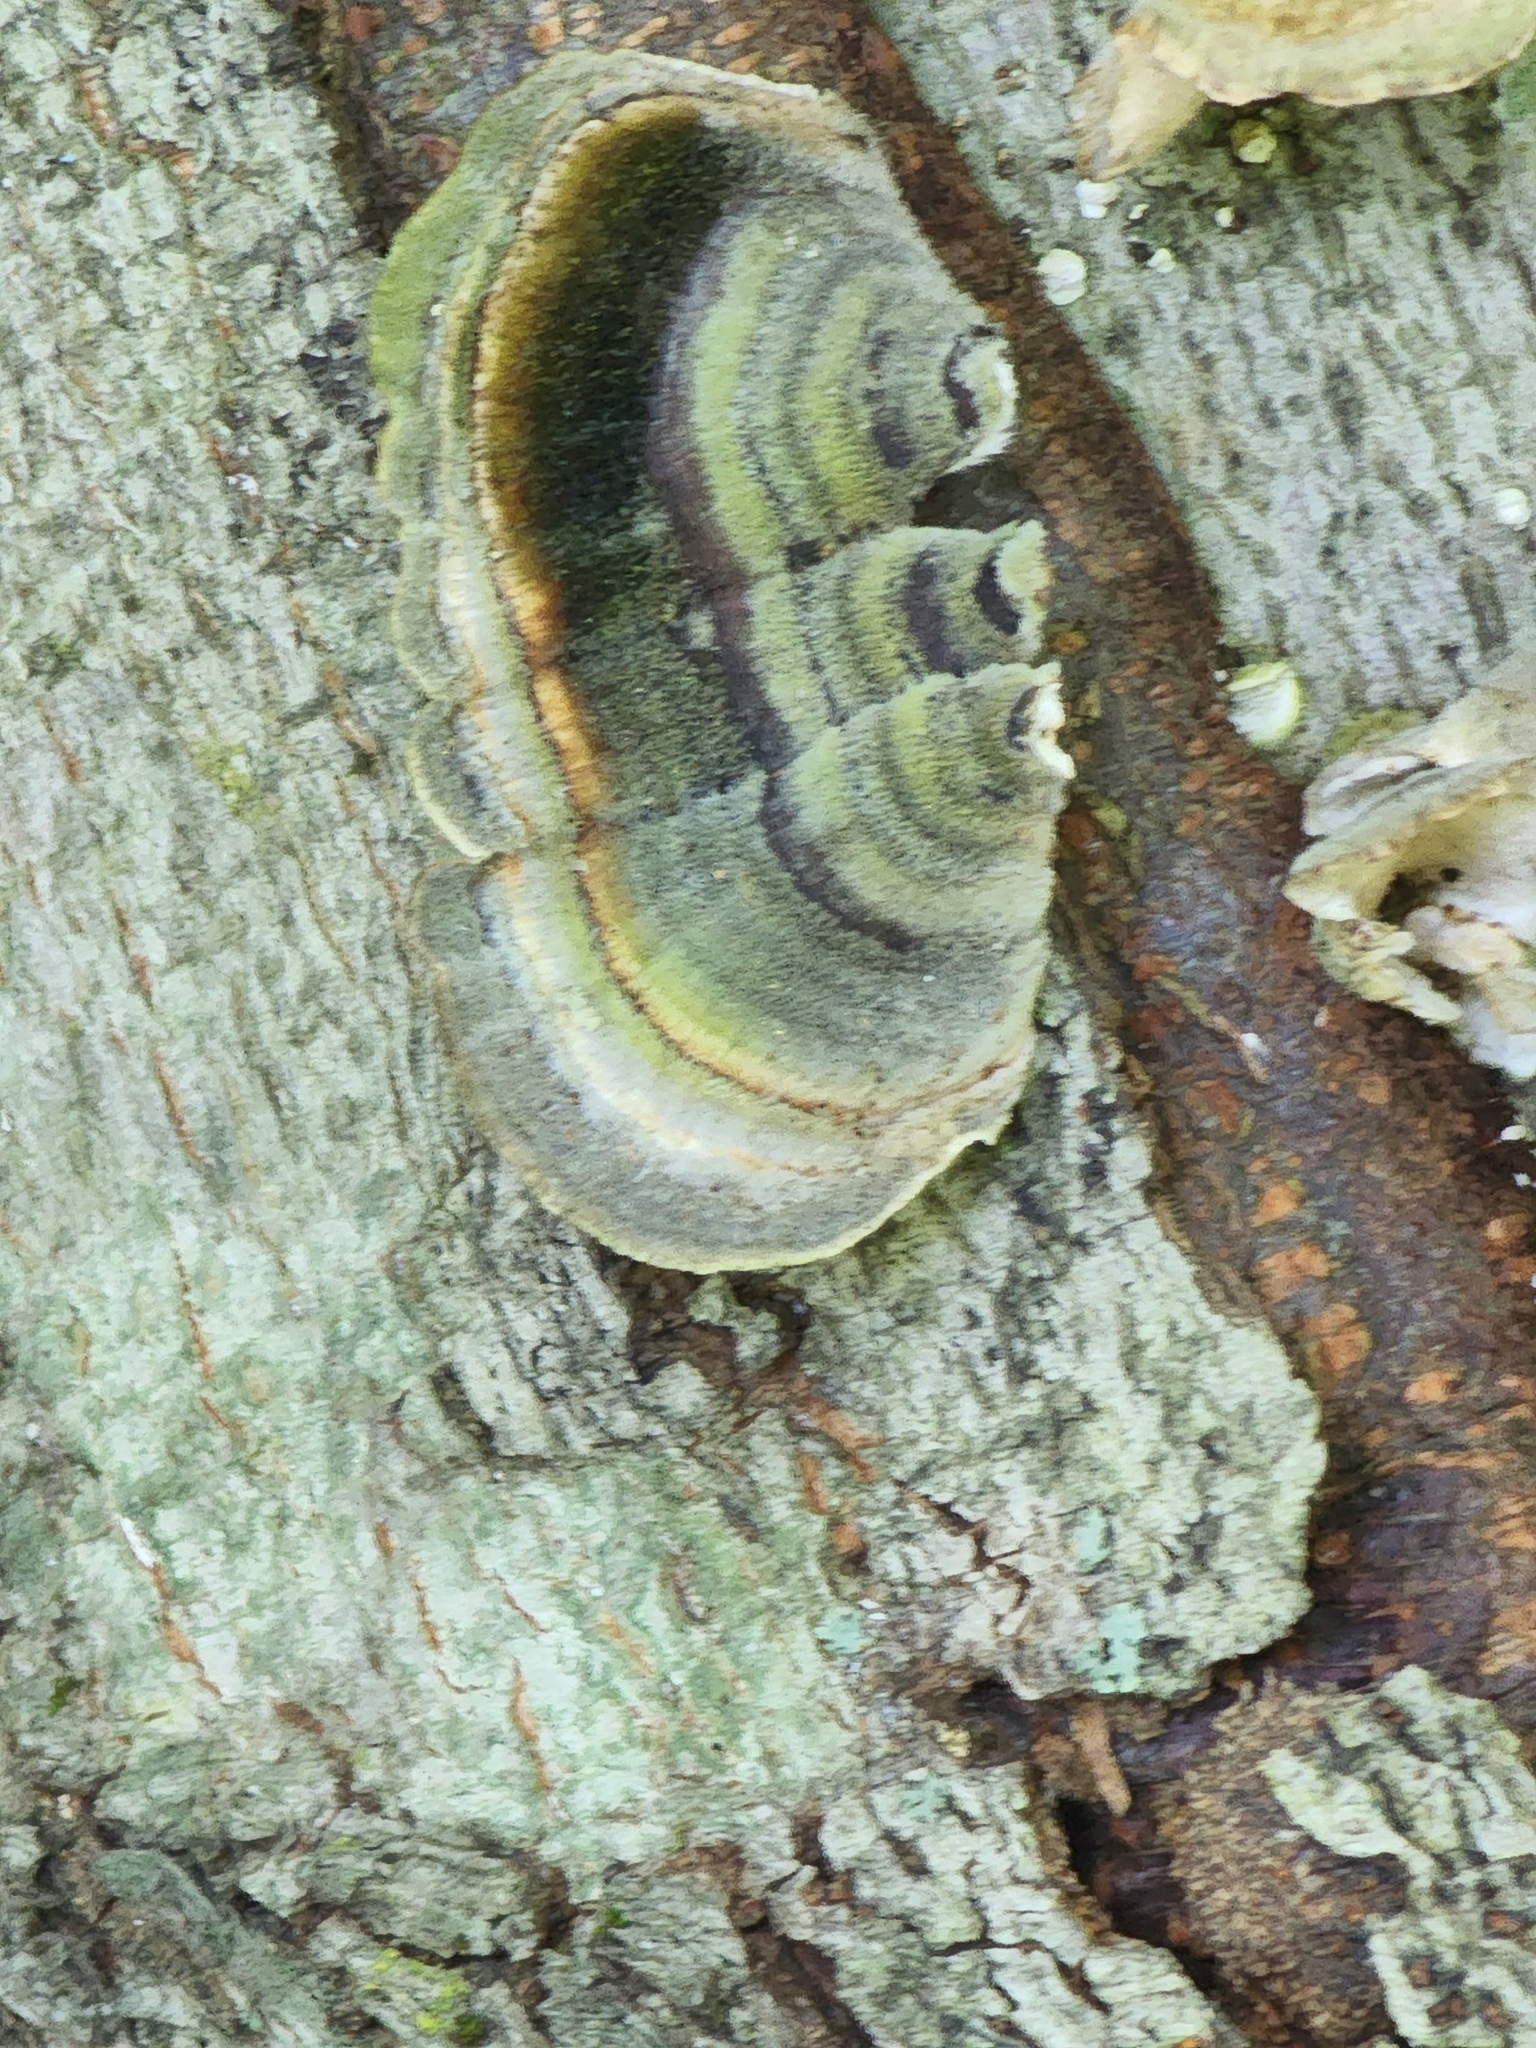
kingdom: Fungi
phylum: Basidiomycota
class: Agaricomycetes
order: Polyporales
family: Polyporaceae
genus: Trametes
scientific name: Trametes versicolor
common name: Turkeytail
